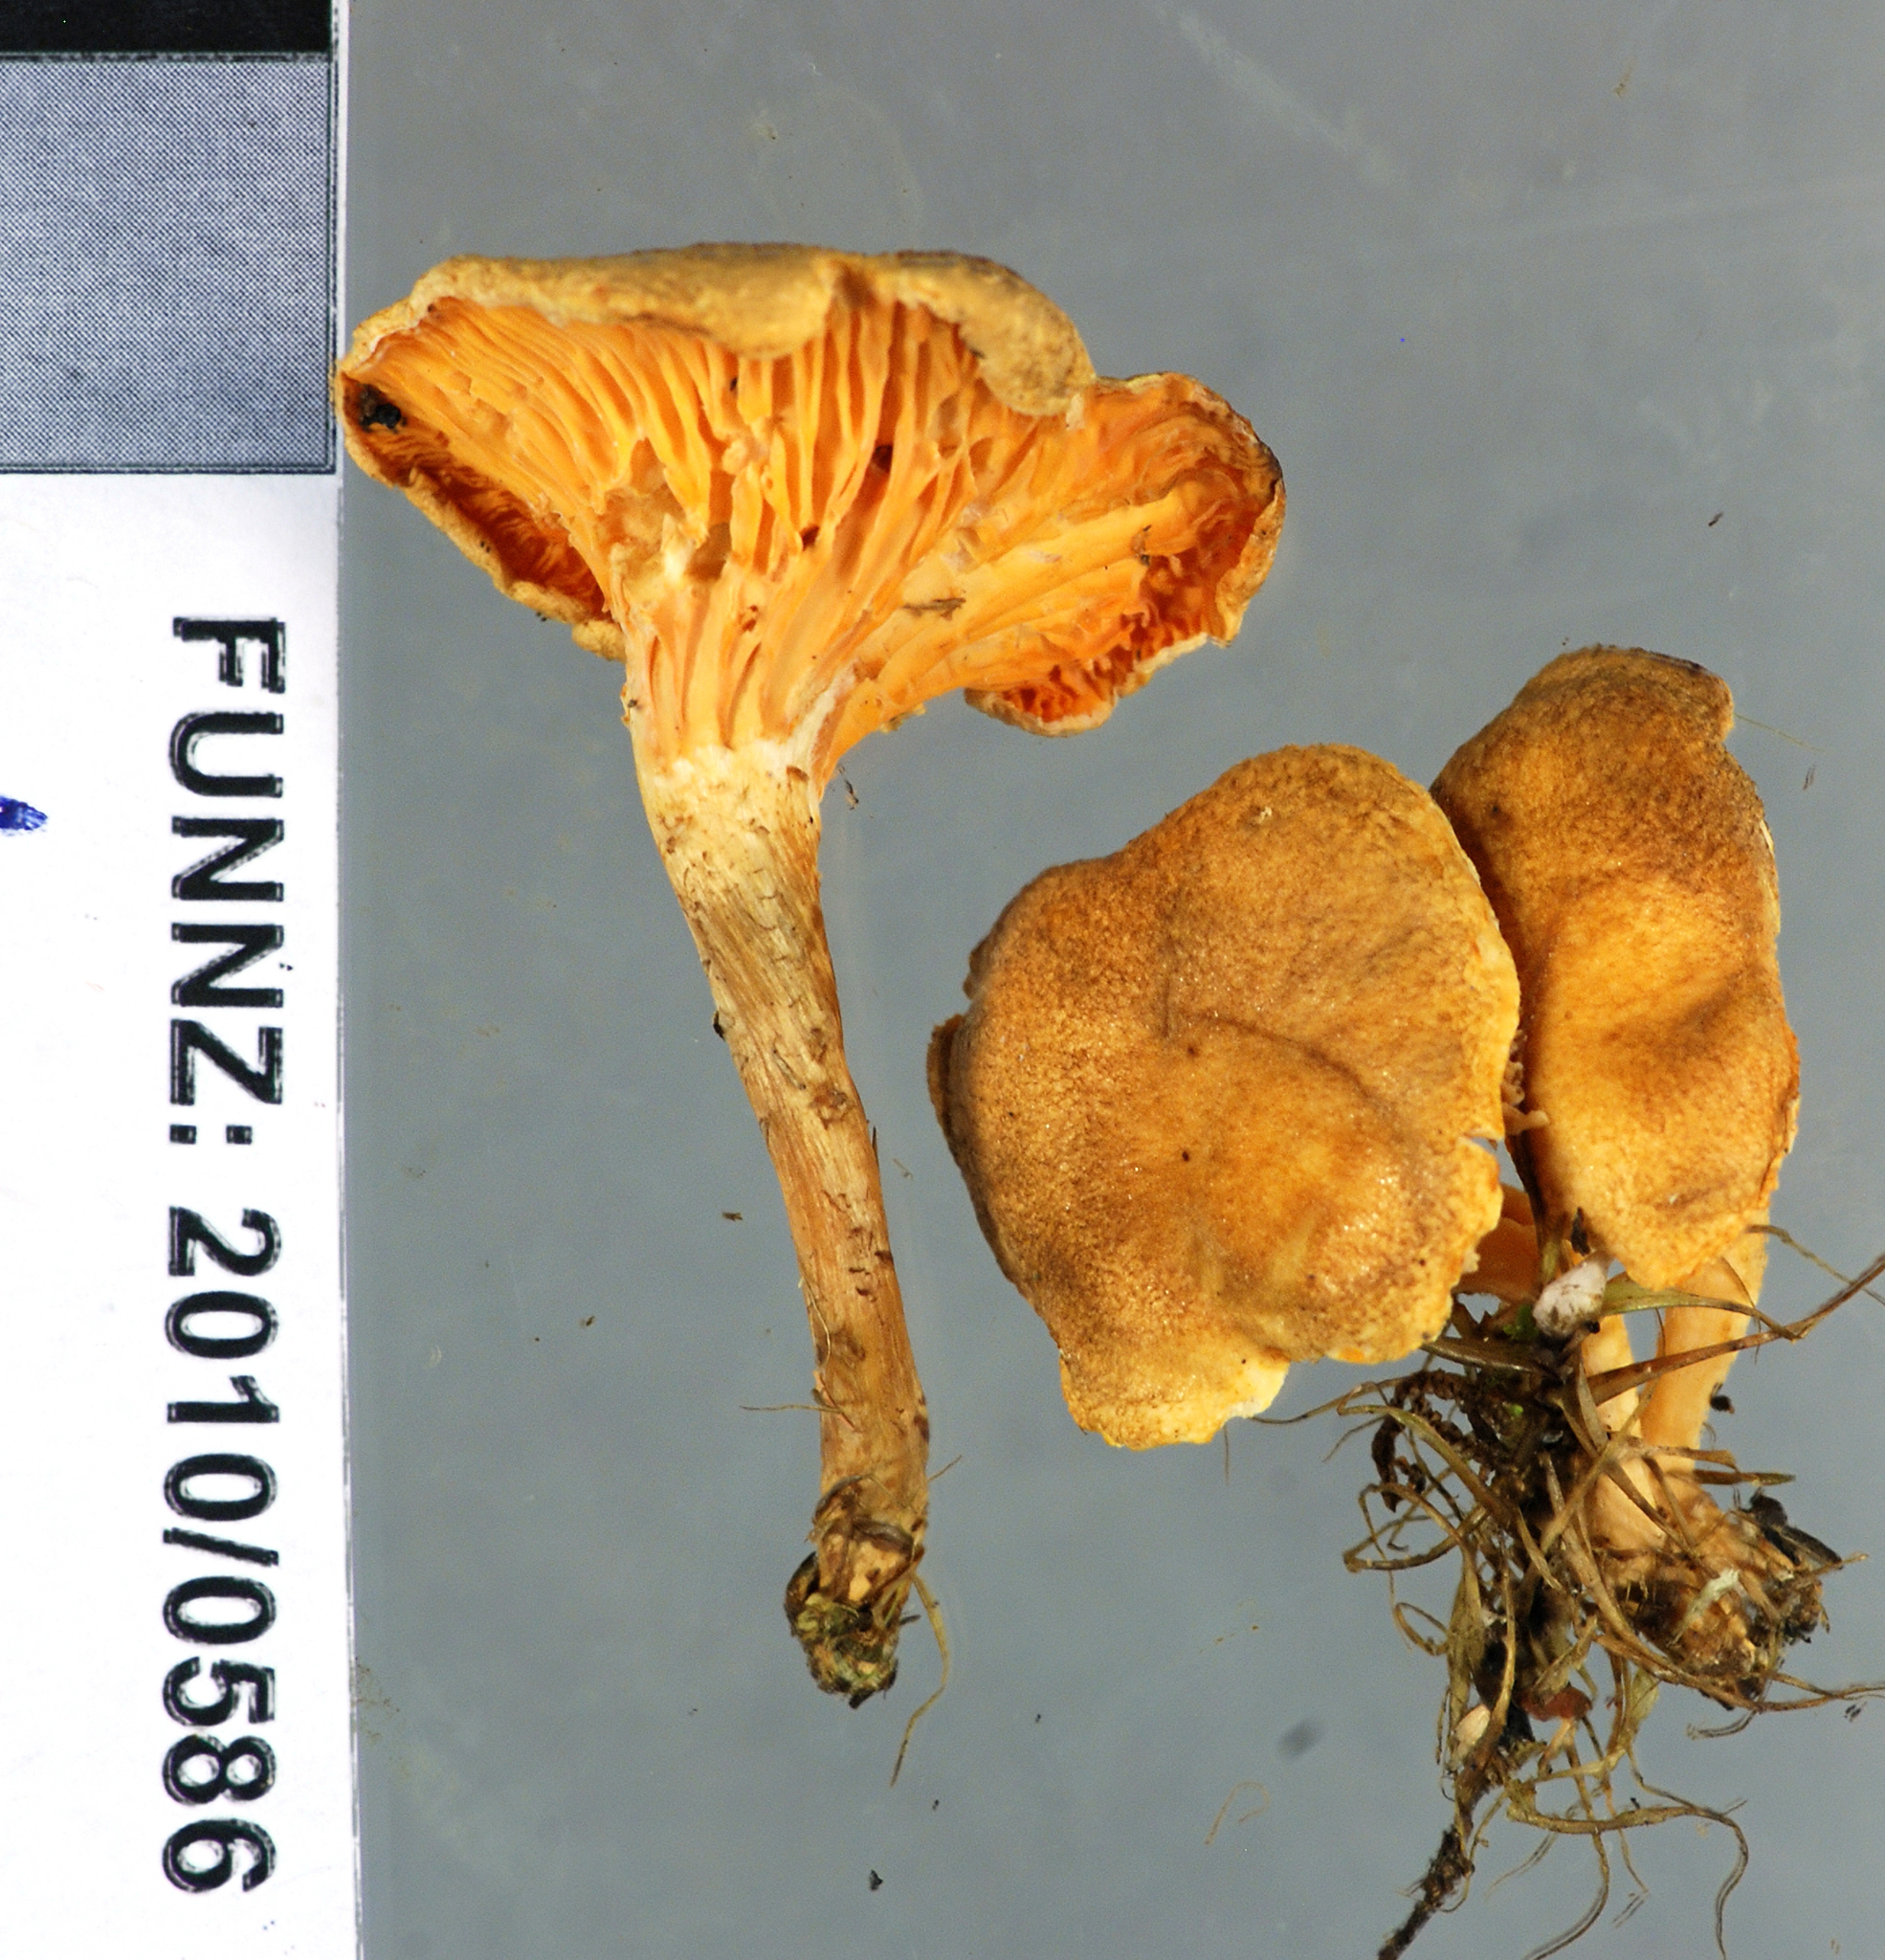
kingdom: Fungi
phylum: Basidiomycota
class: Agaricomycetes
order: Boletales
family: Hygrophoropsidaceae
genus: Hygrophoropsis
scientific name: Hygrophoropsis coacta
